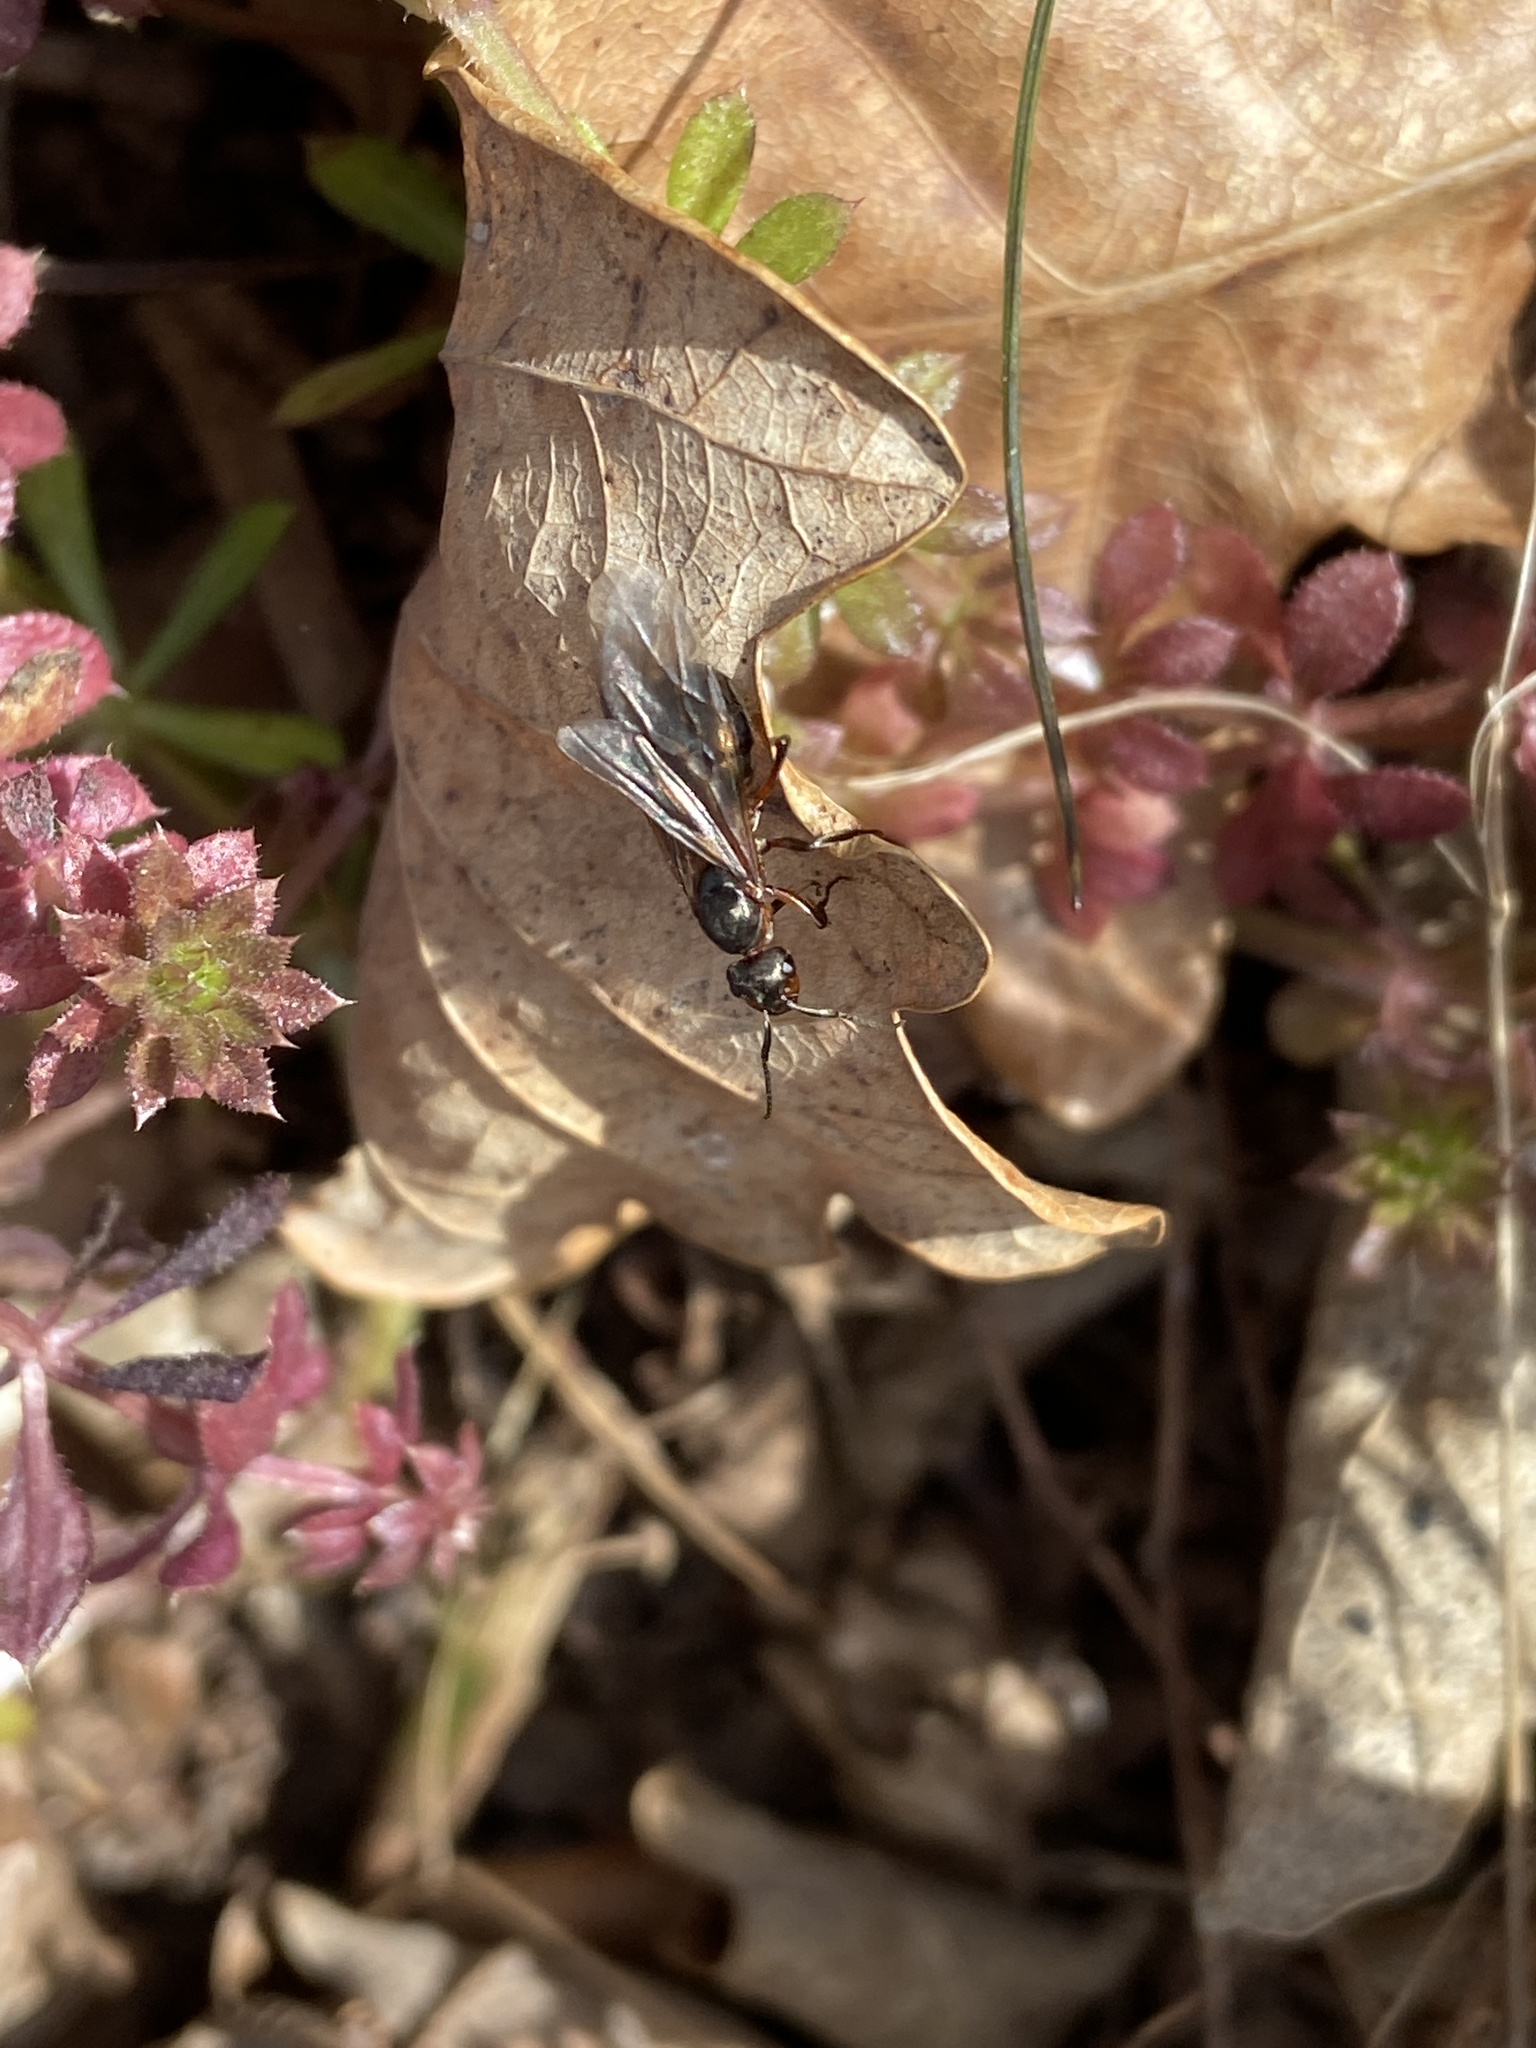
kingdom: Animalia
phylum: Arthropoda
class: Insecta
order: Hymenoptera
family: Formicidae
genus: Formica
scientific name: Formica rufa
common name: Red wood ant
